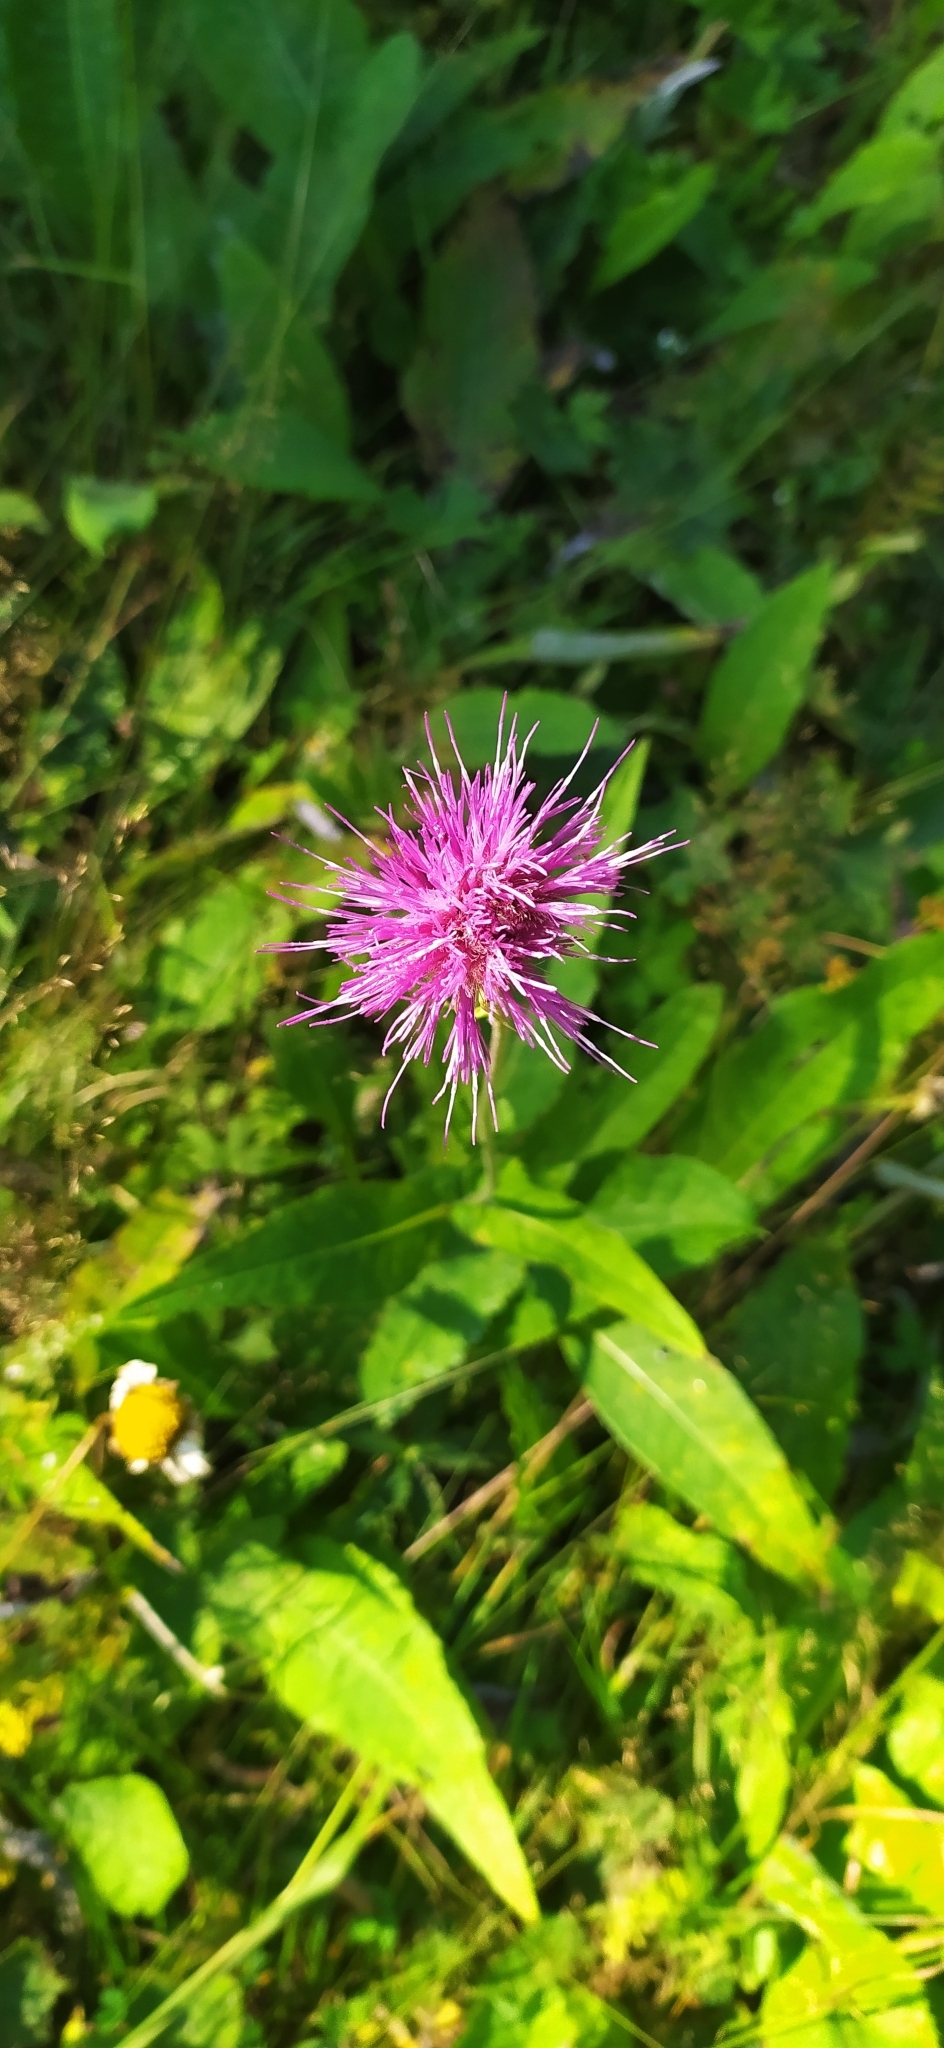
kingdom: Plantae
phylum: Tracheophyta
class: Magnoliopsida
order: Asterales
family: Asteraceae
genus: Cirsium
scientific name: Cirsium heterophyllum
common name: Melancholy thistle
